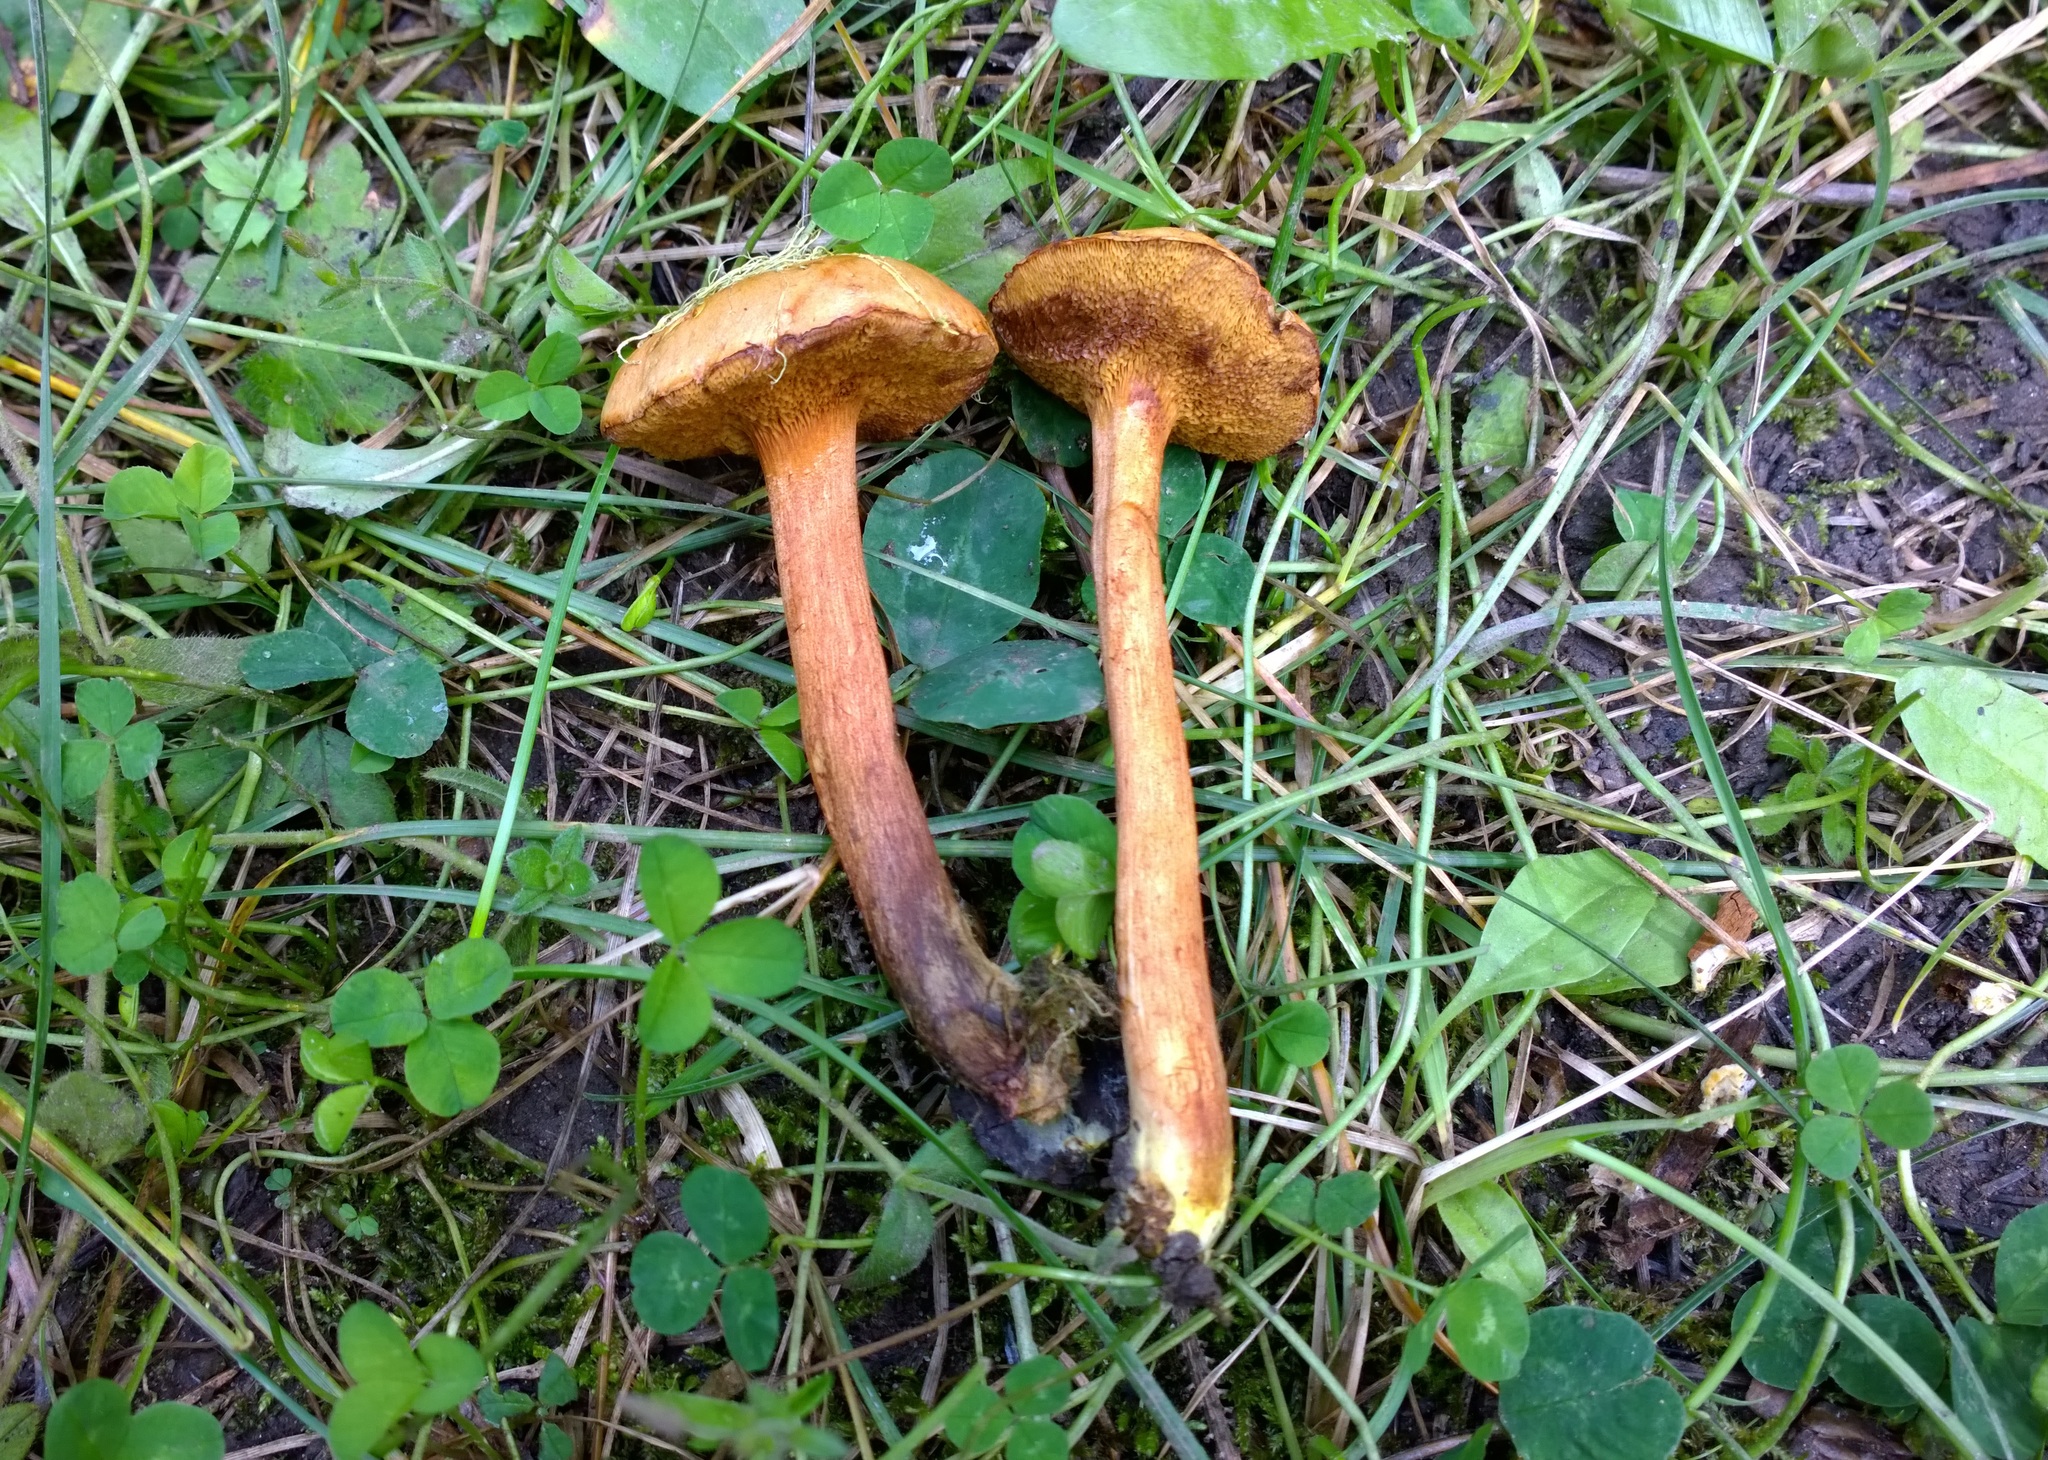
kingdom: Fungi
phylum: Basidiomycota
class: Agaricomycetes
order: Boletales
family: Boletaceae
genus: Chalciporus
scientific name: Chalciporus piperatus
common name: Peppery bolete
